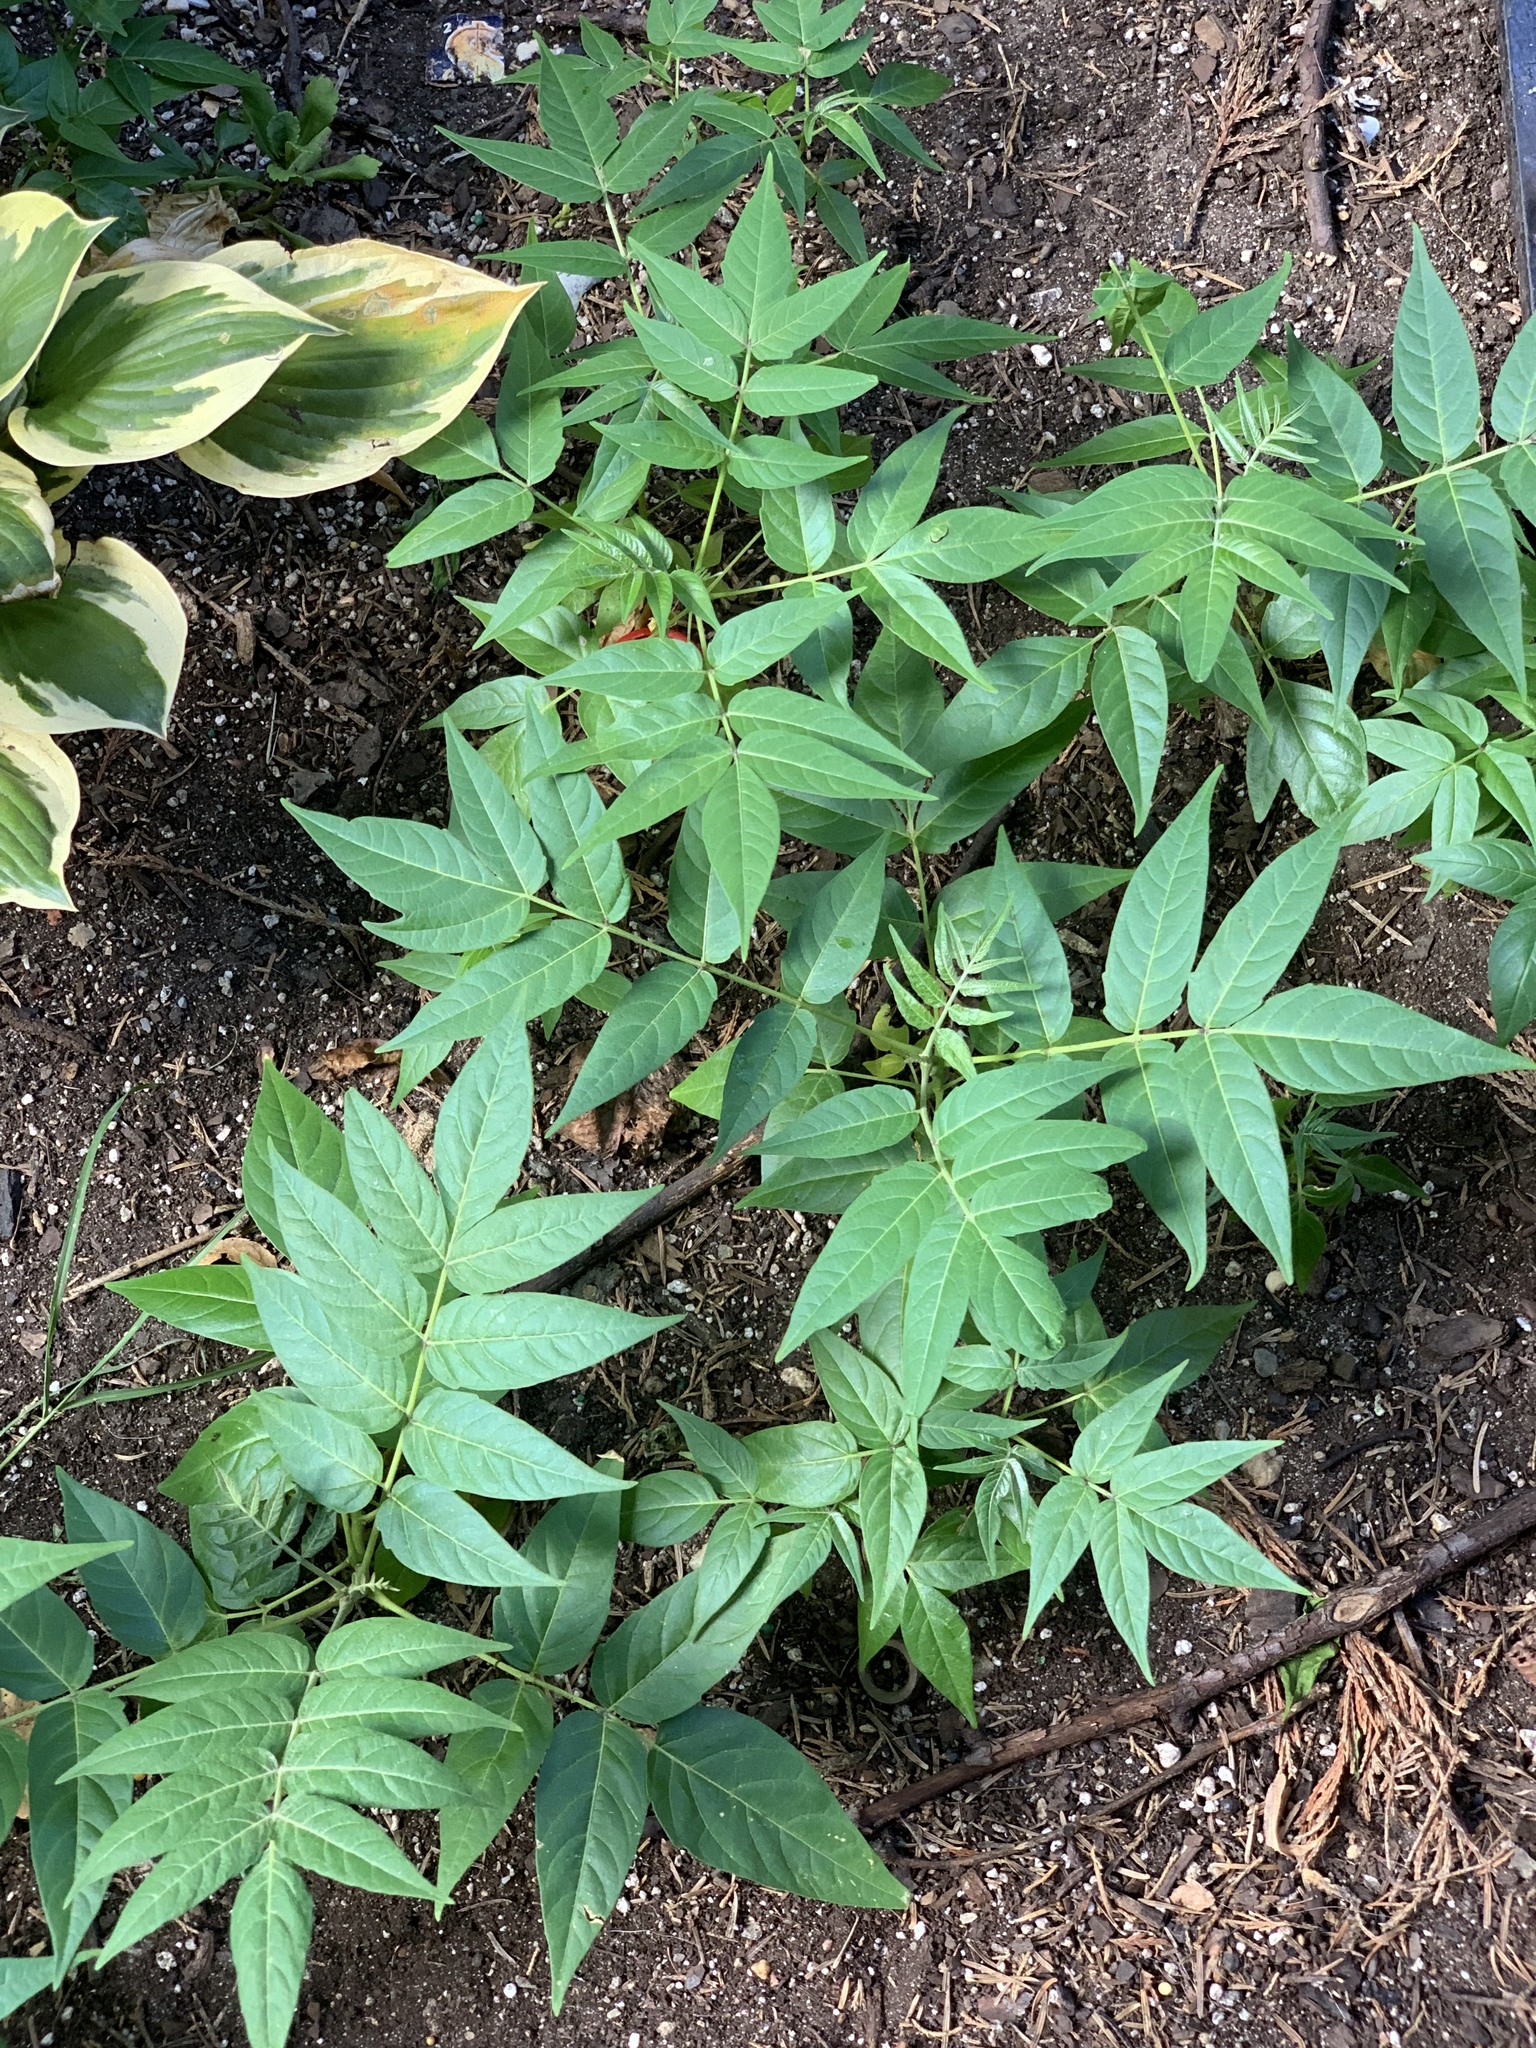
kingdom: Plantae
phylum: Tracheophyta
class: Magnoliopsida
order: Sapindales
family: Simaroubaceae
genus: Ailanthus
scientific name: Ailanthus altissima
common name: Tree-of-heaven
